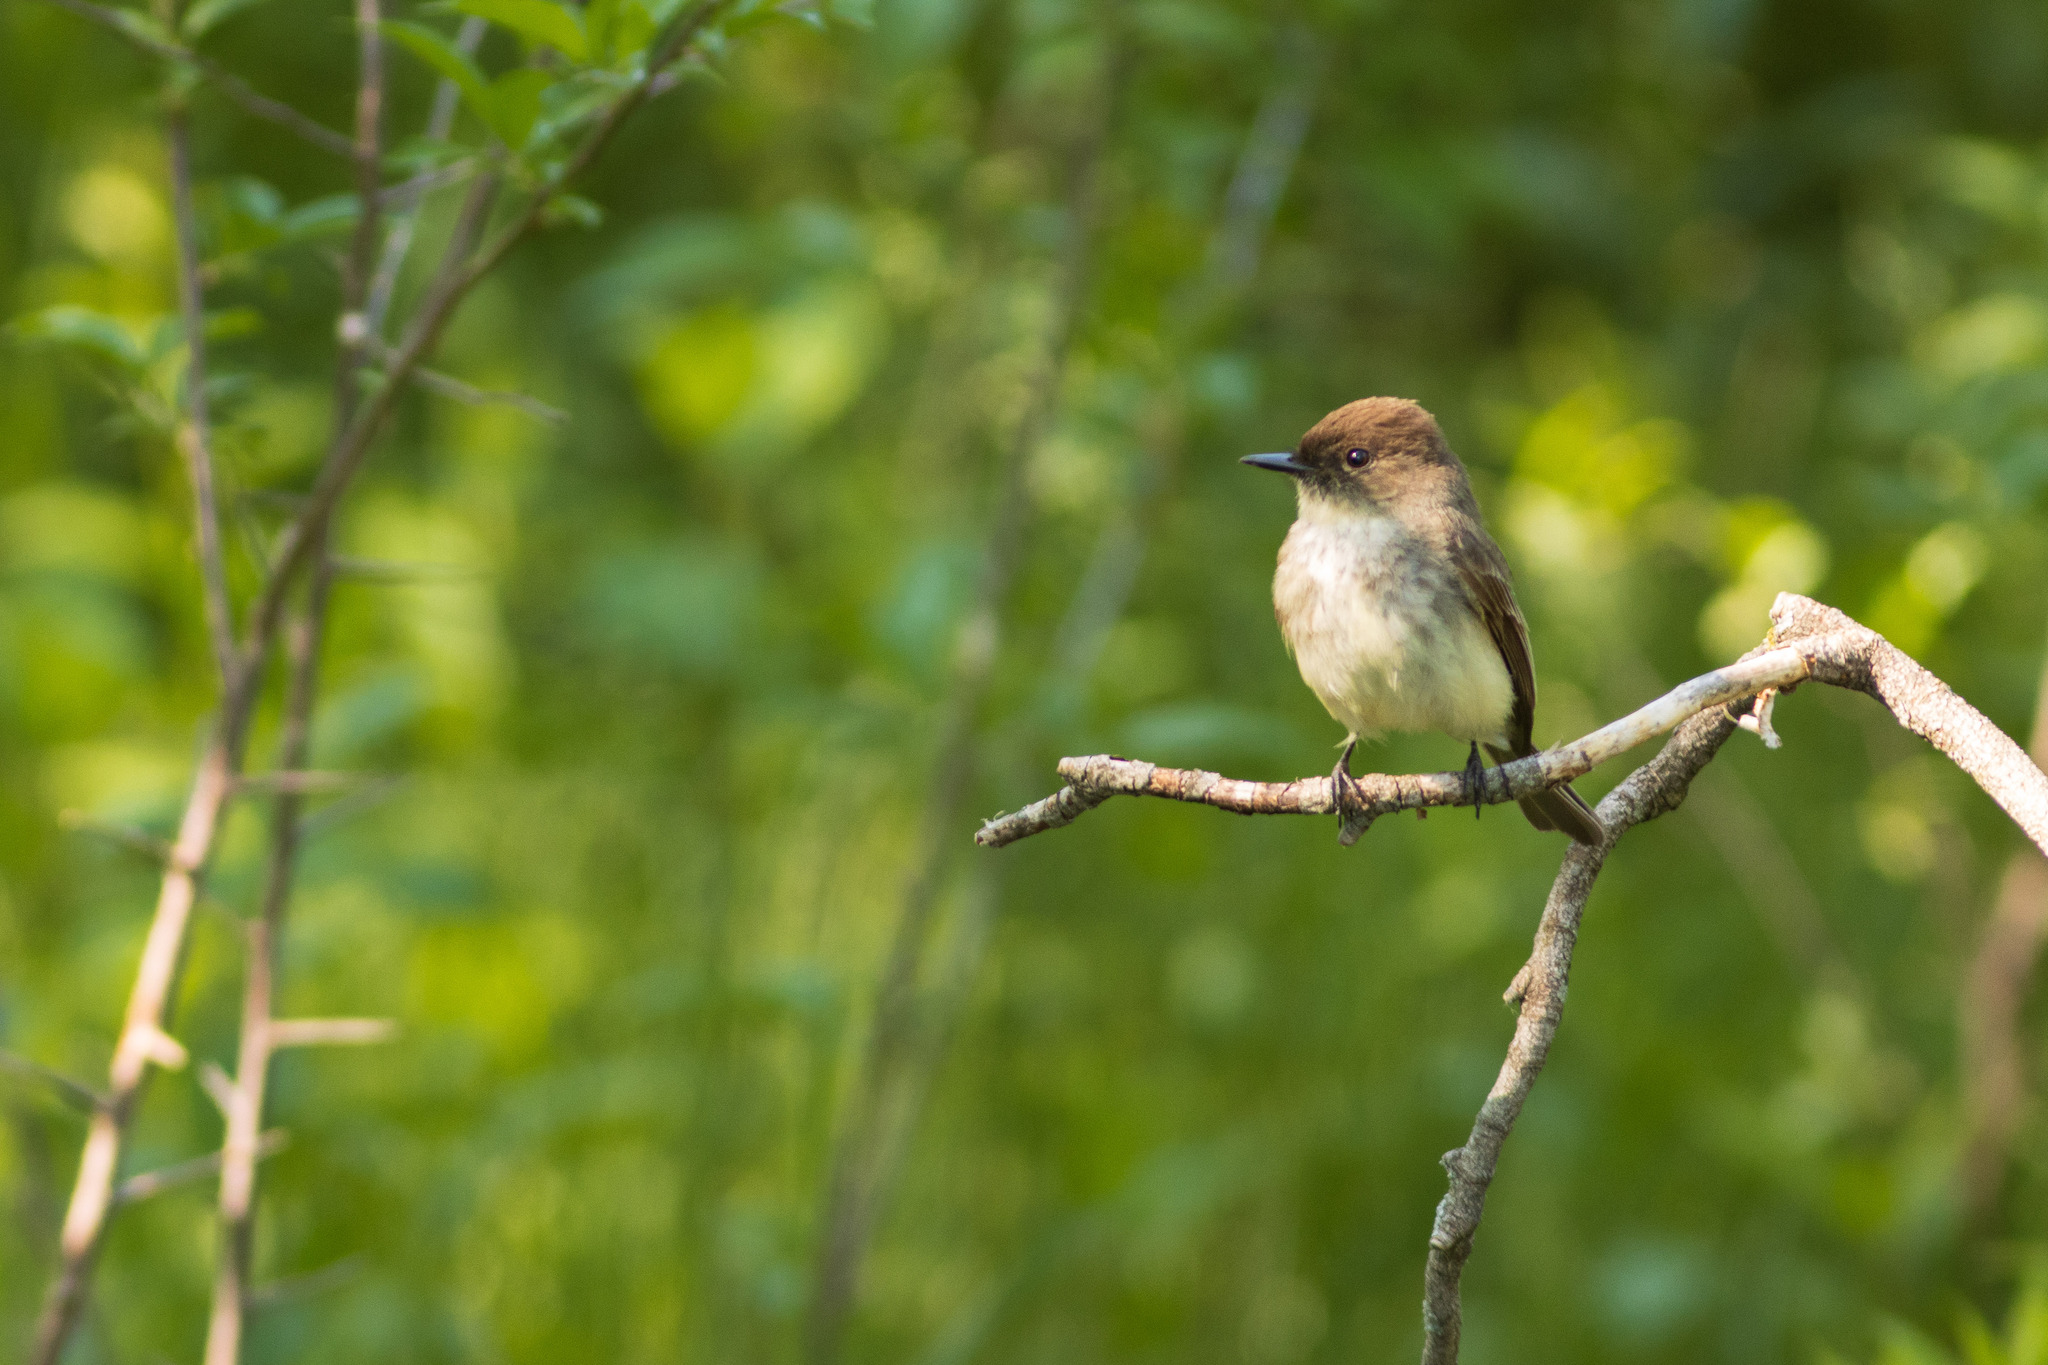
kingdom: Animalia
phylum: Chordata
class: Aves
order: Passeriformes
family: Tyrannidae
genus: Sayornis
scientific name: Sayornis phoebe
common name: Eastern phoebe
